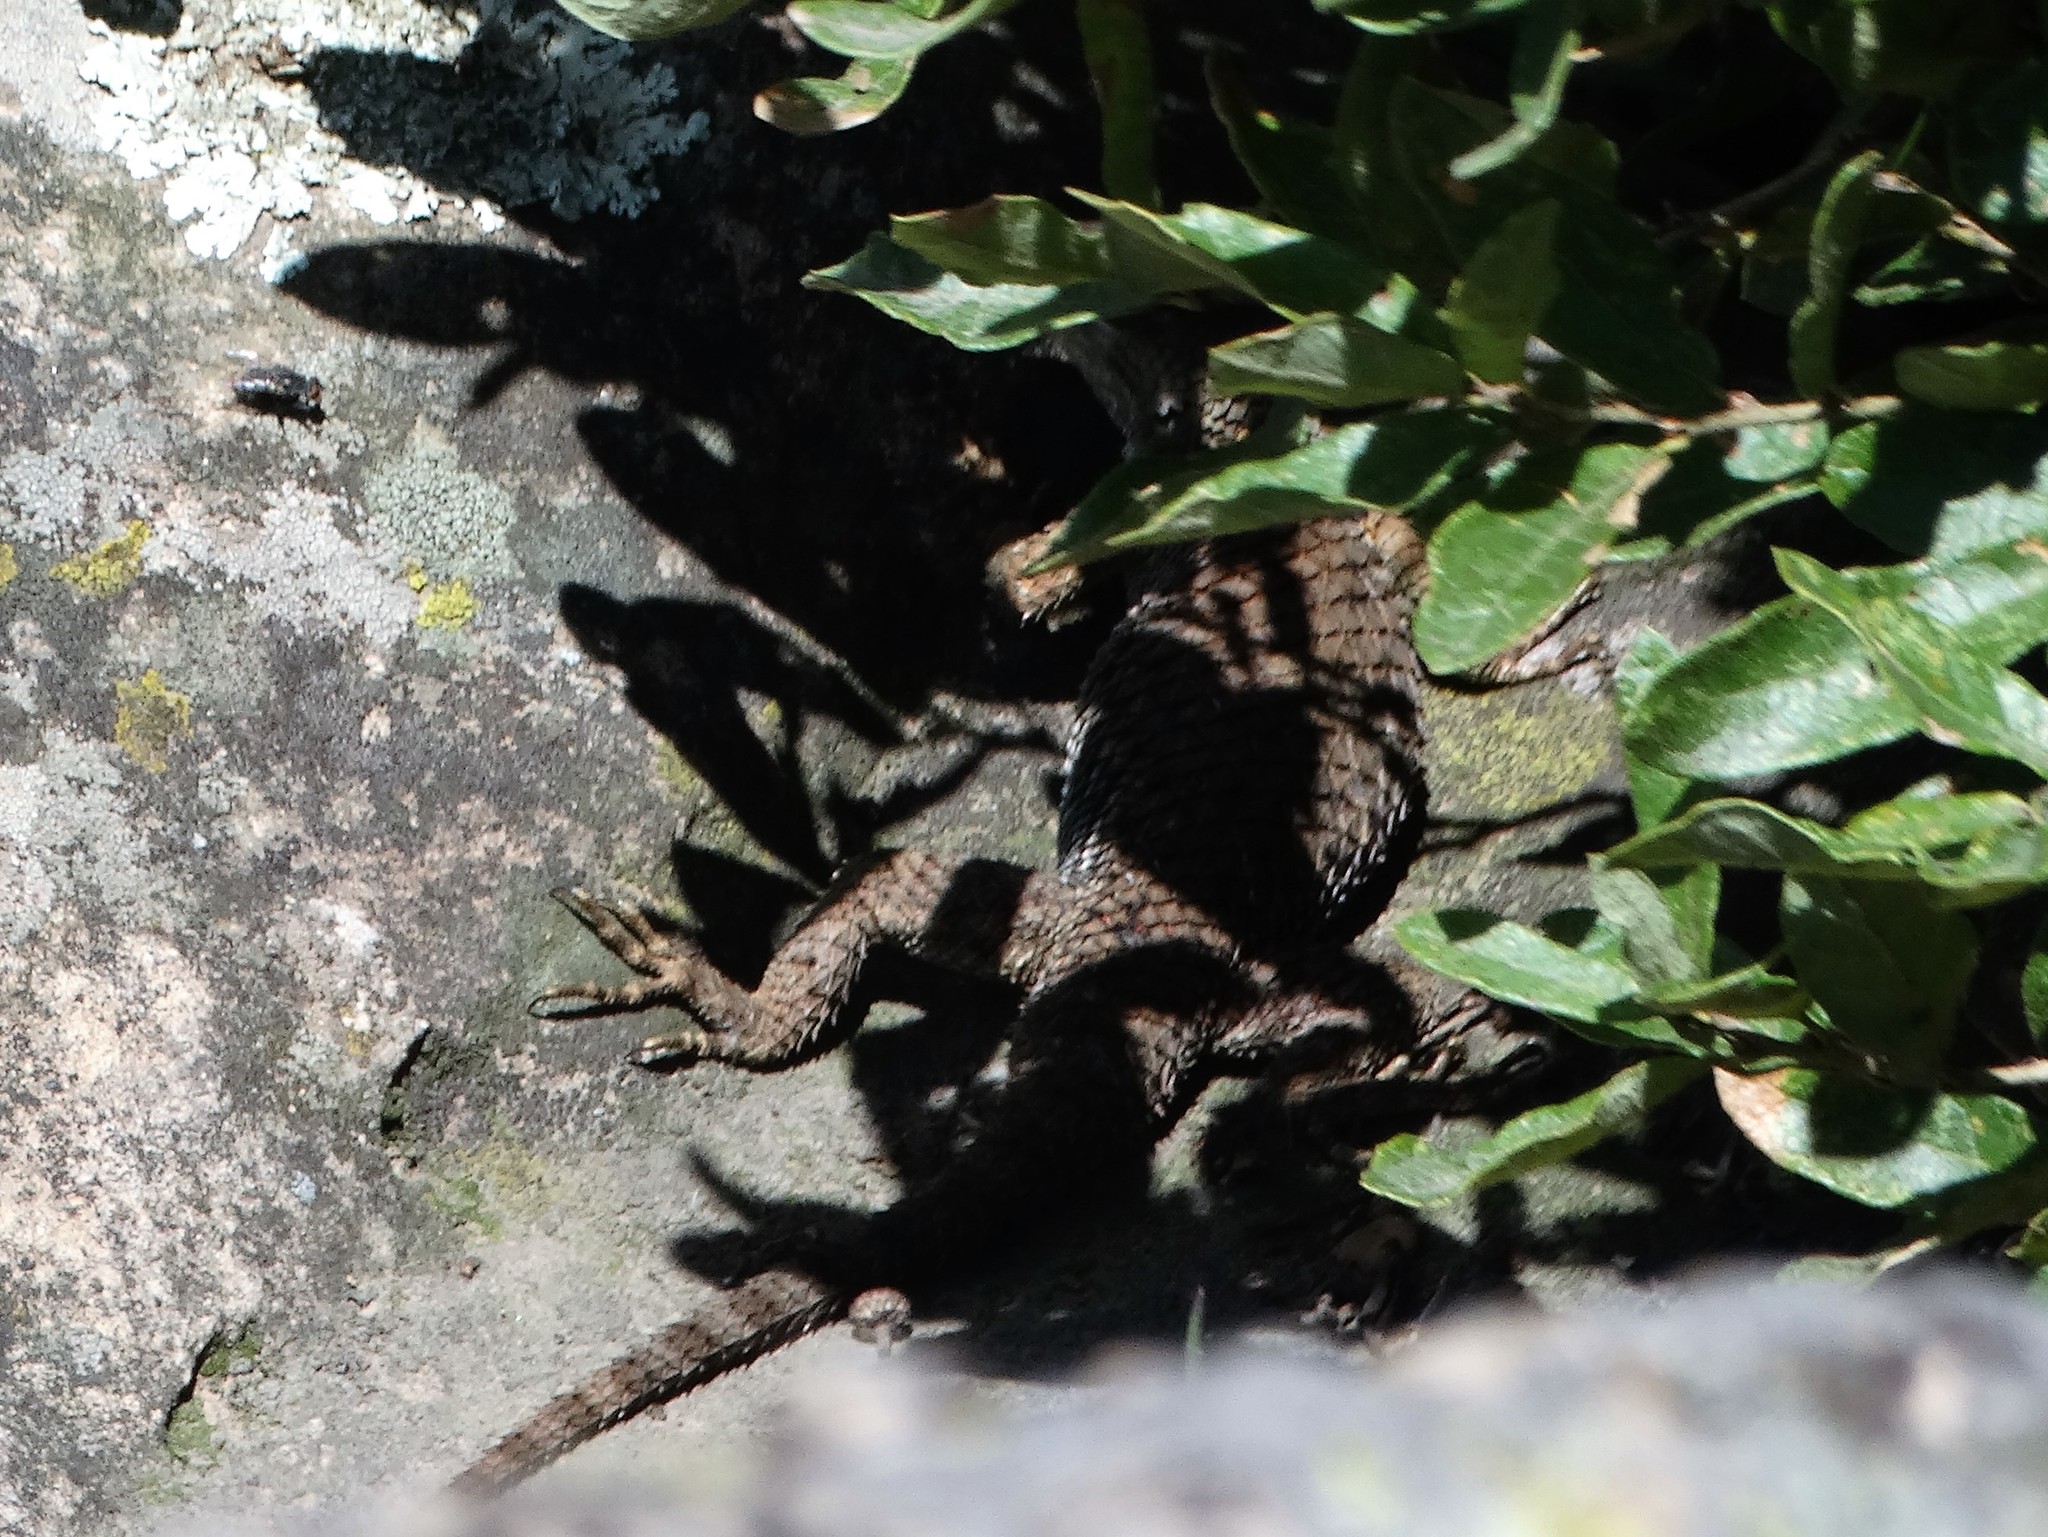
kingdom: Animalia
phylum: Chordata
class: Squamata
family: Phrynosomatidae
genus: Sceloporus
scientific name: Sceloporus torquatus
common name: Central plateau torquate lizard [melanogaster]
